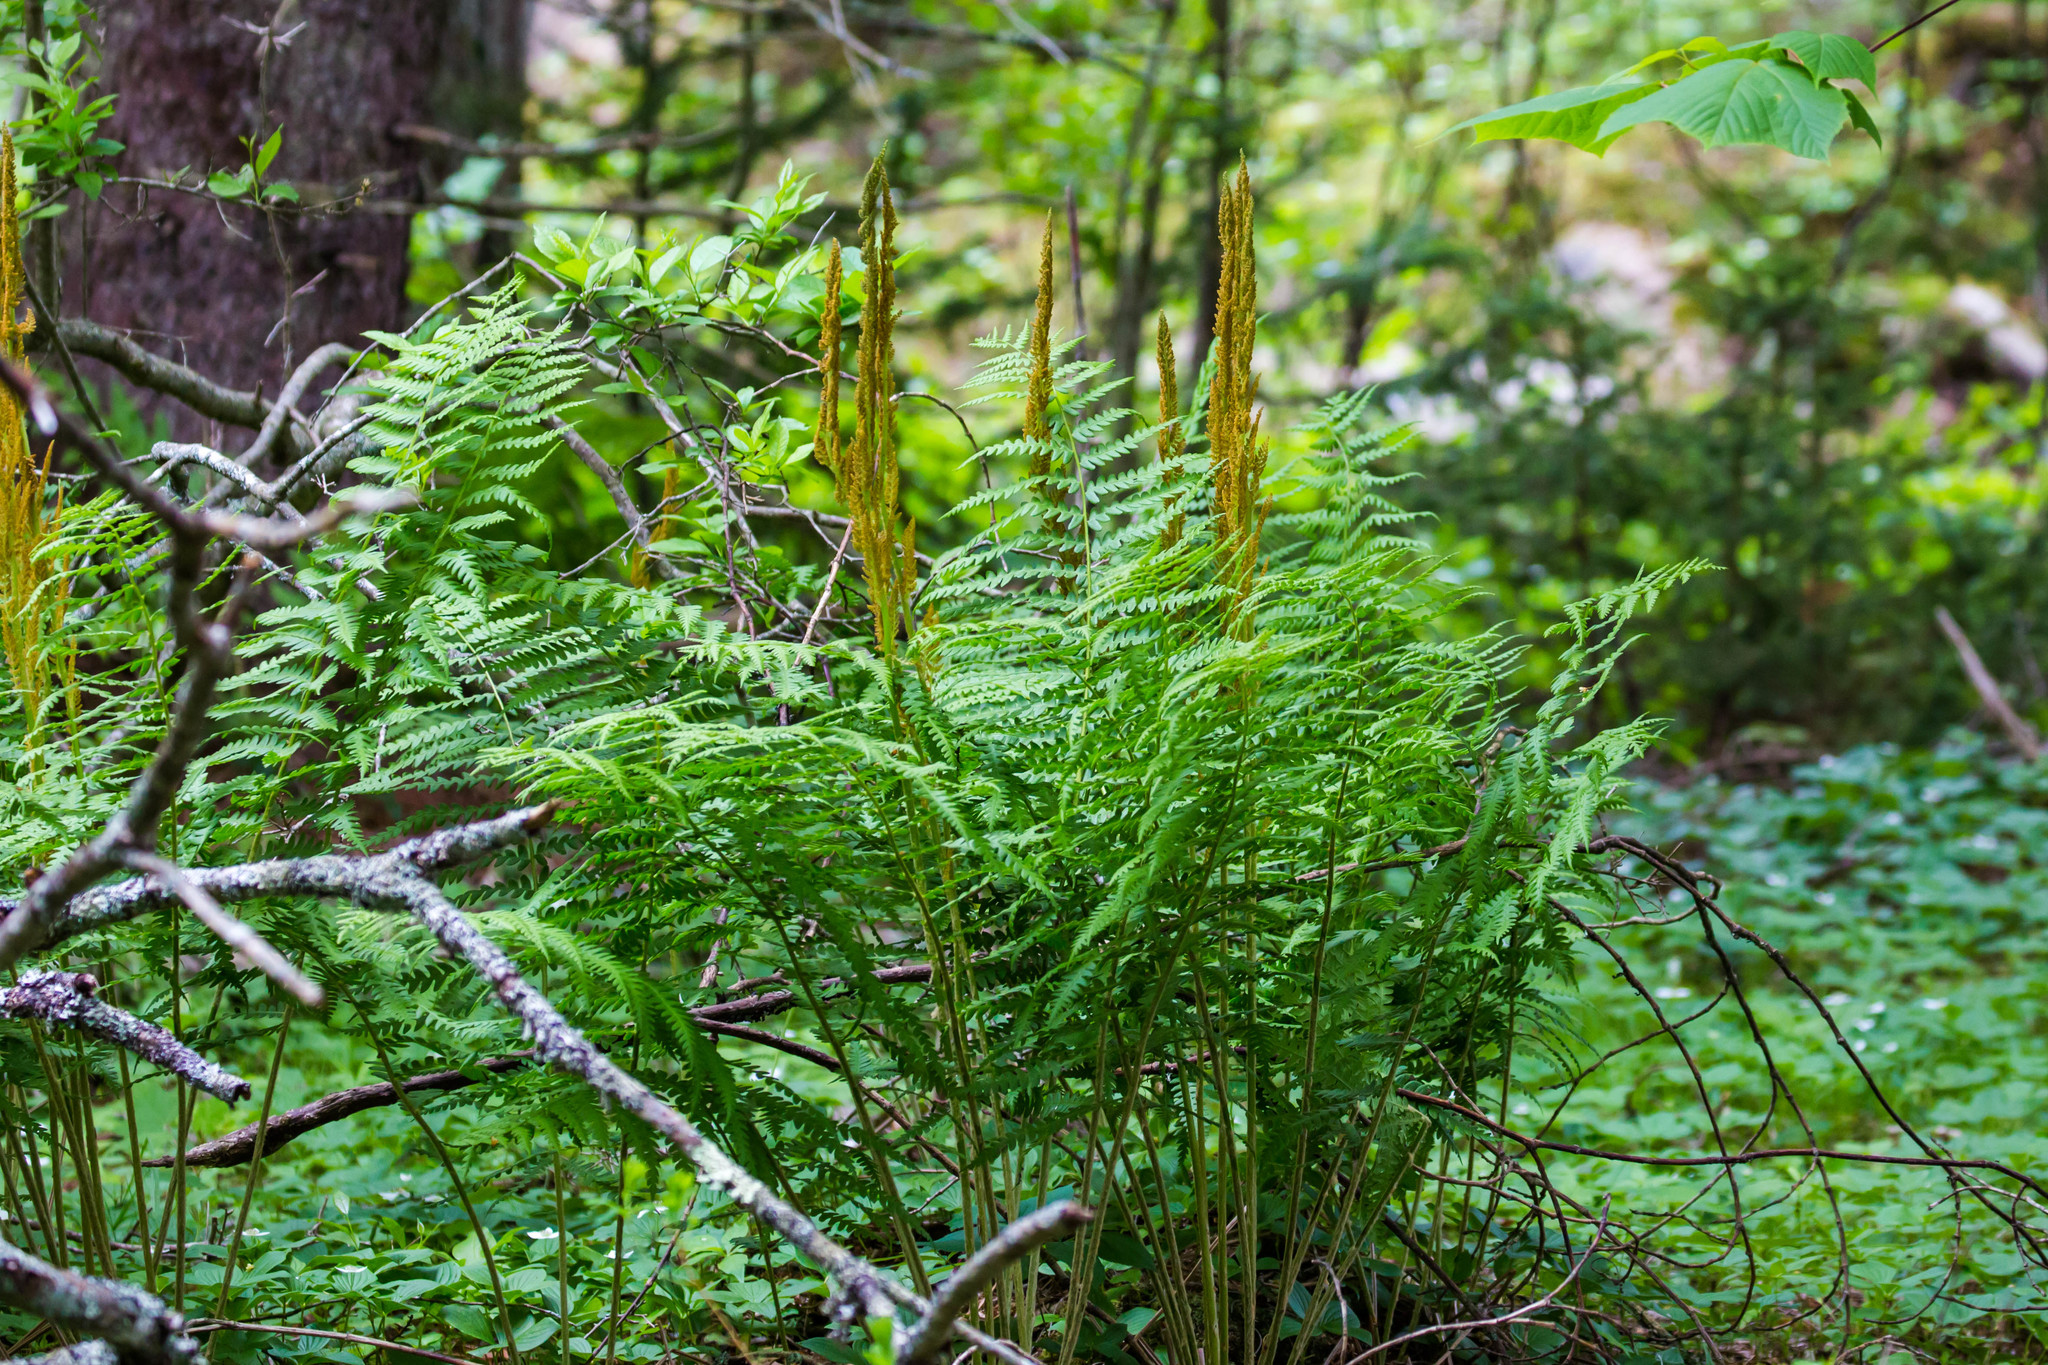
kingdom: Plantae
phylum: Tracheophyta
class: Polypodiopsida
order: Osmundales
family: Osmundaceae
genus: Osmundastrum
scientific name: Osmundastrum cinnamomeum
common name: Cinnamon fern
